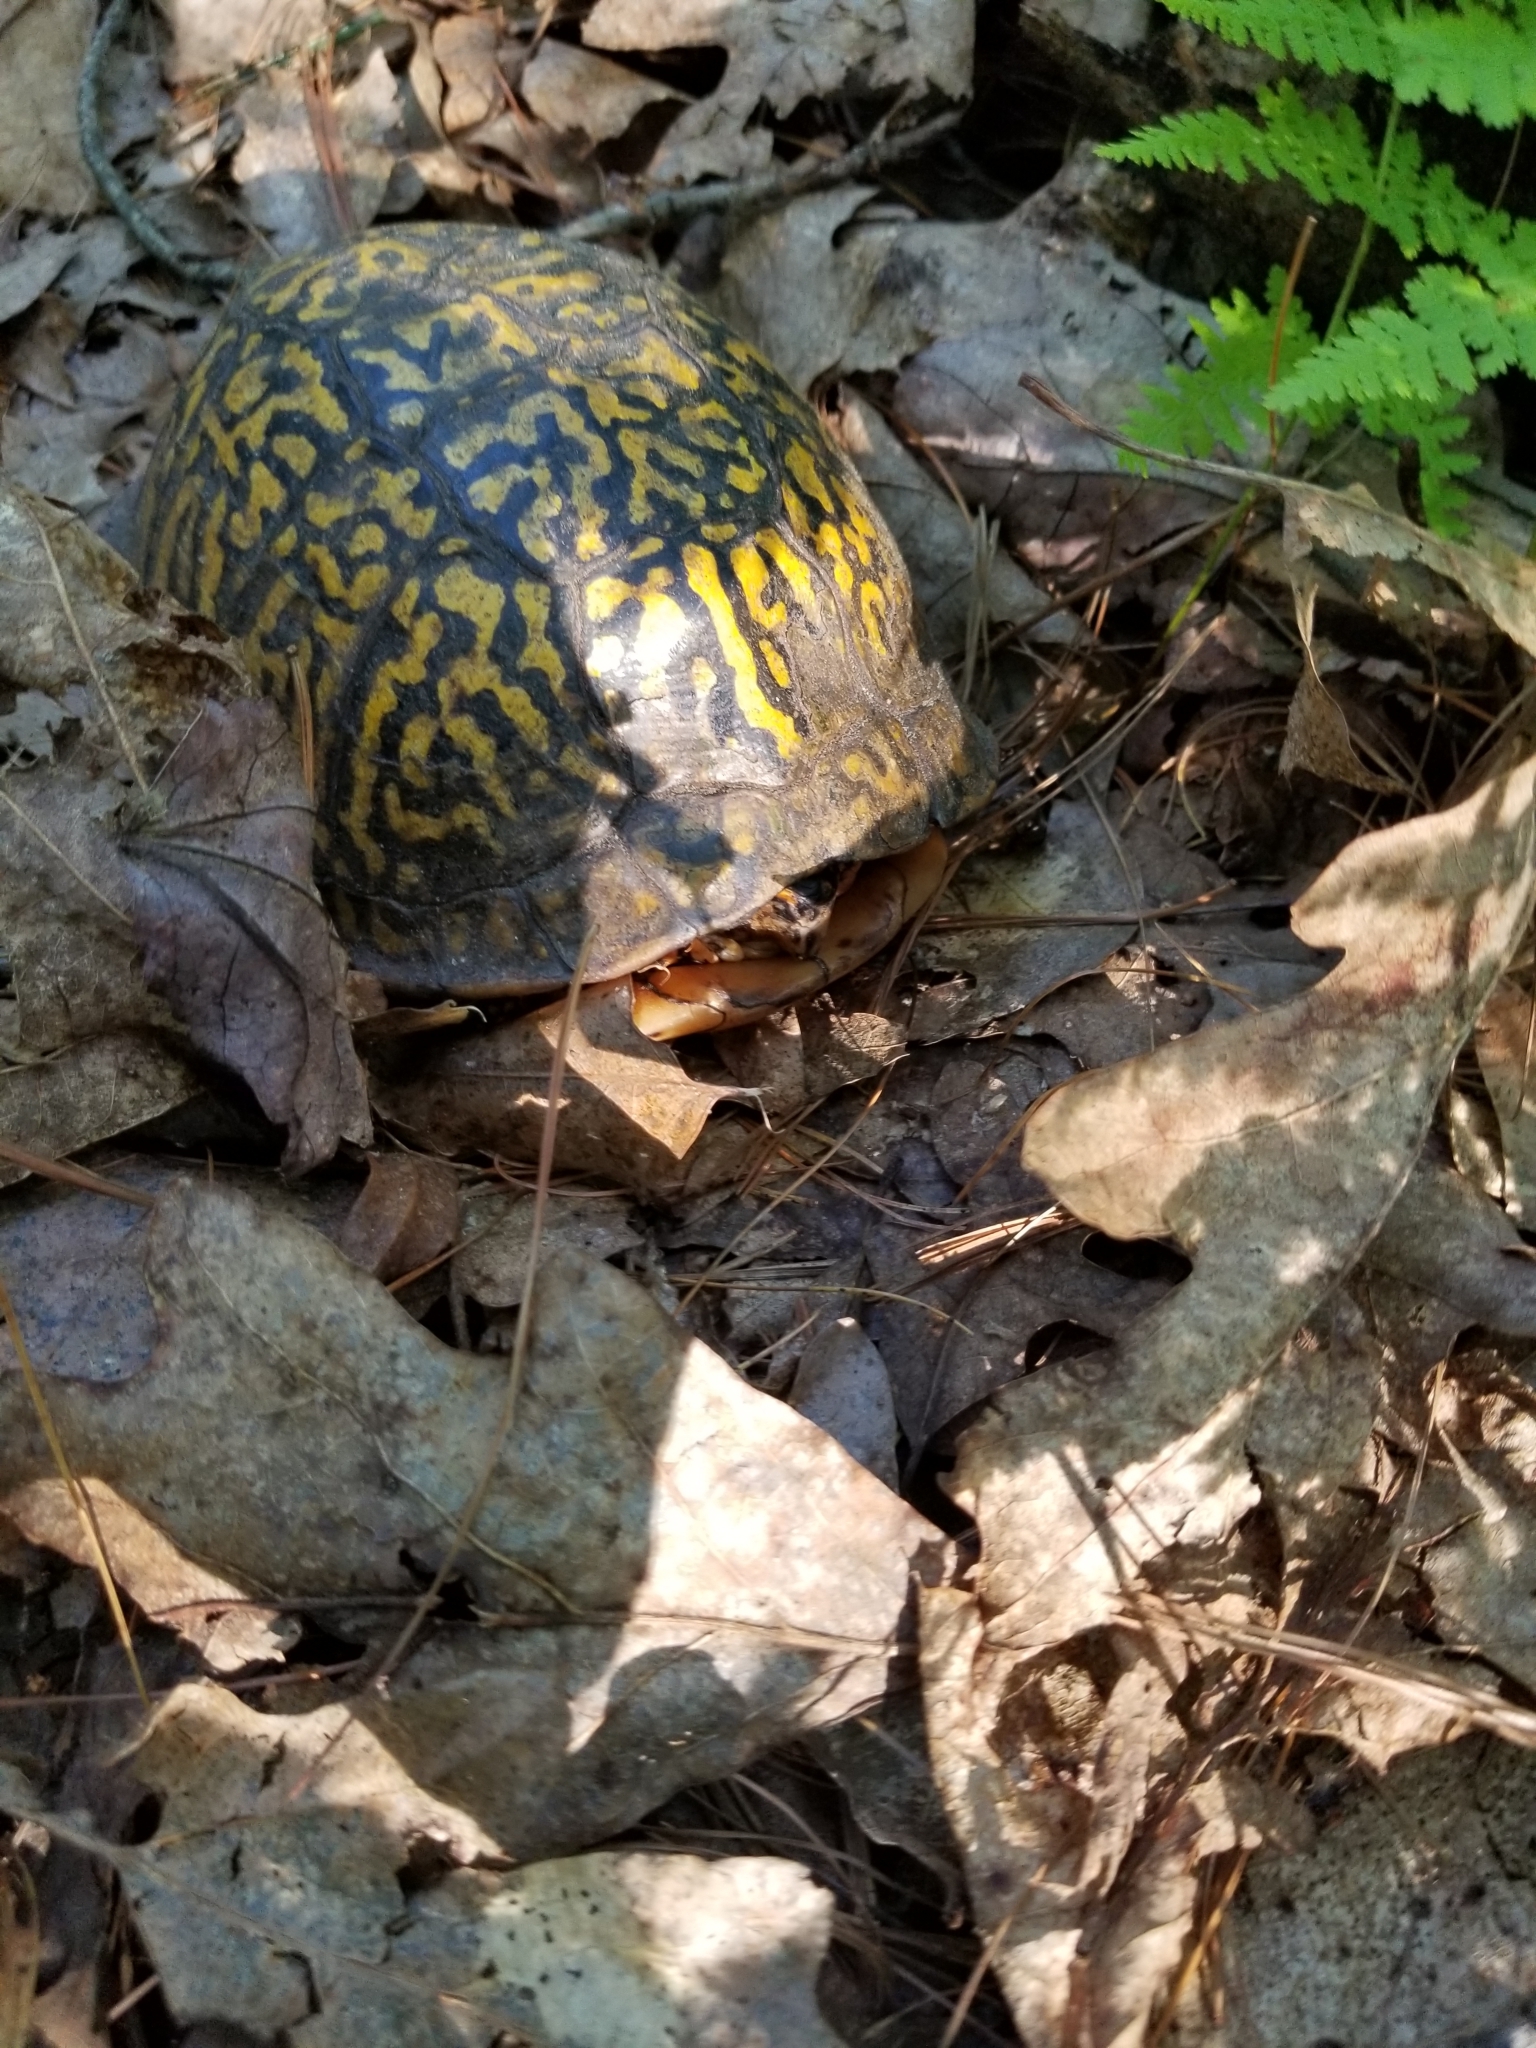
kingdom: Animalia
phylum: Chordata
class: Testudines
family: Emydidae
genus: Terrapene
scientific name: Terrapene carolina
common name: Common box turtle
